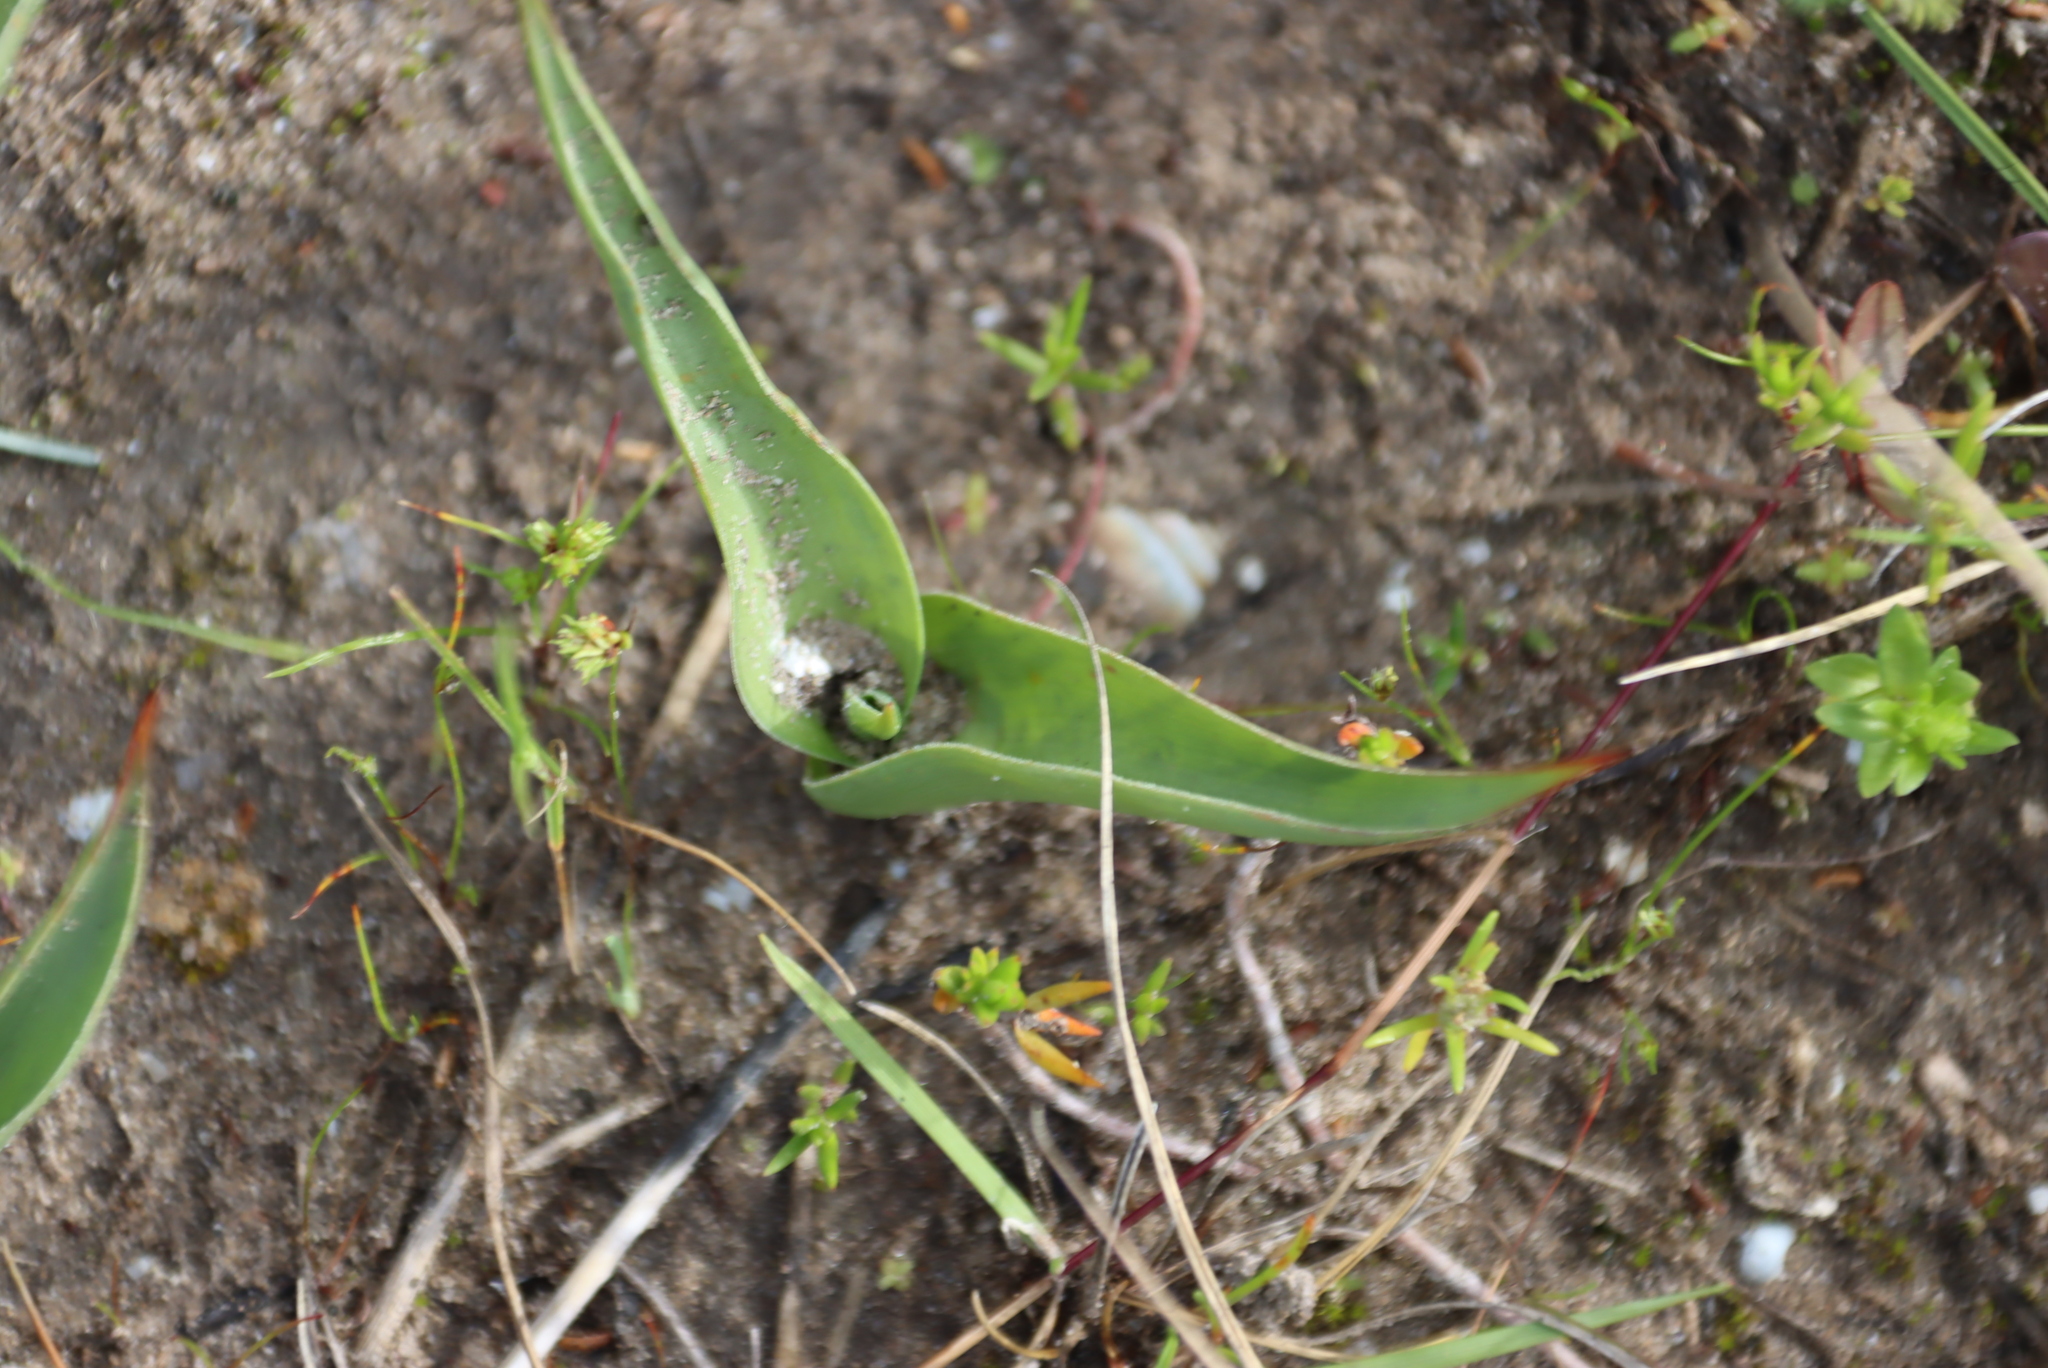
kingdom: Plantae
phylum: Tracheophyta
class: Liliopsida
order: Liliales
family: Colchicaceae
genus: Colchicum
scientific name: Colchicum eucomoides
